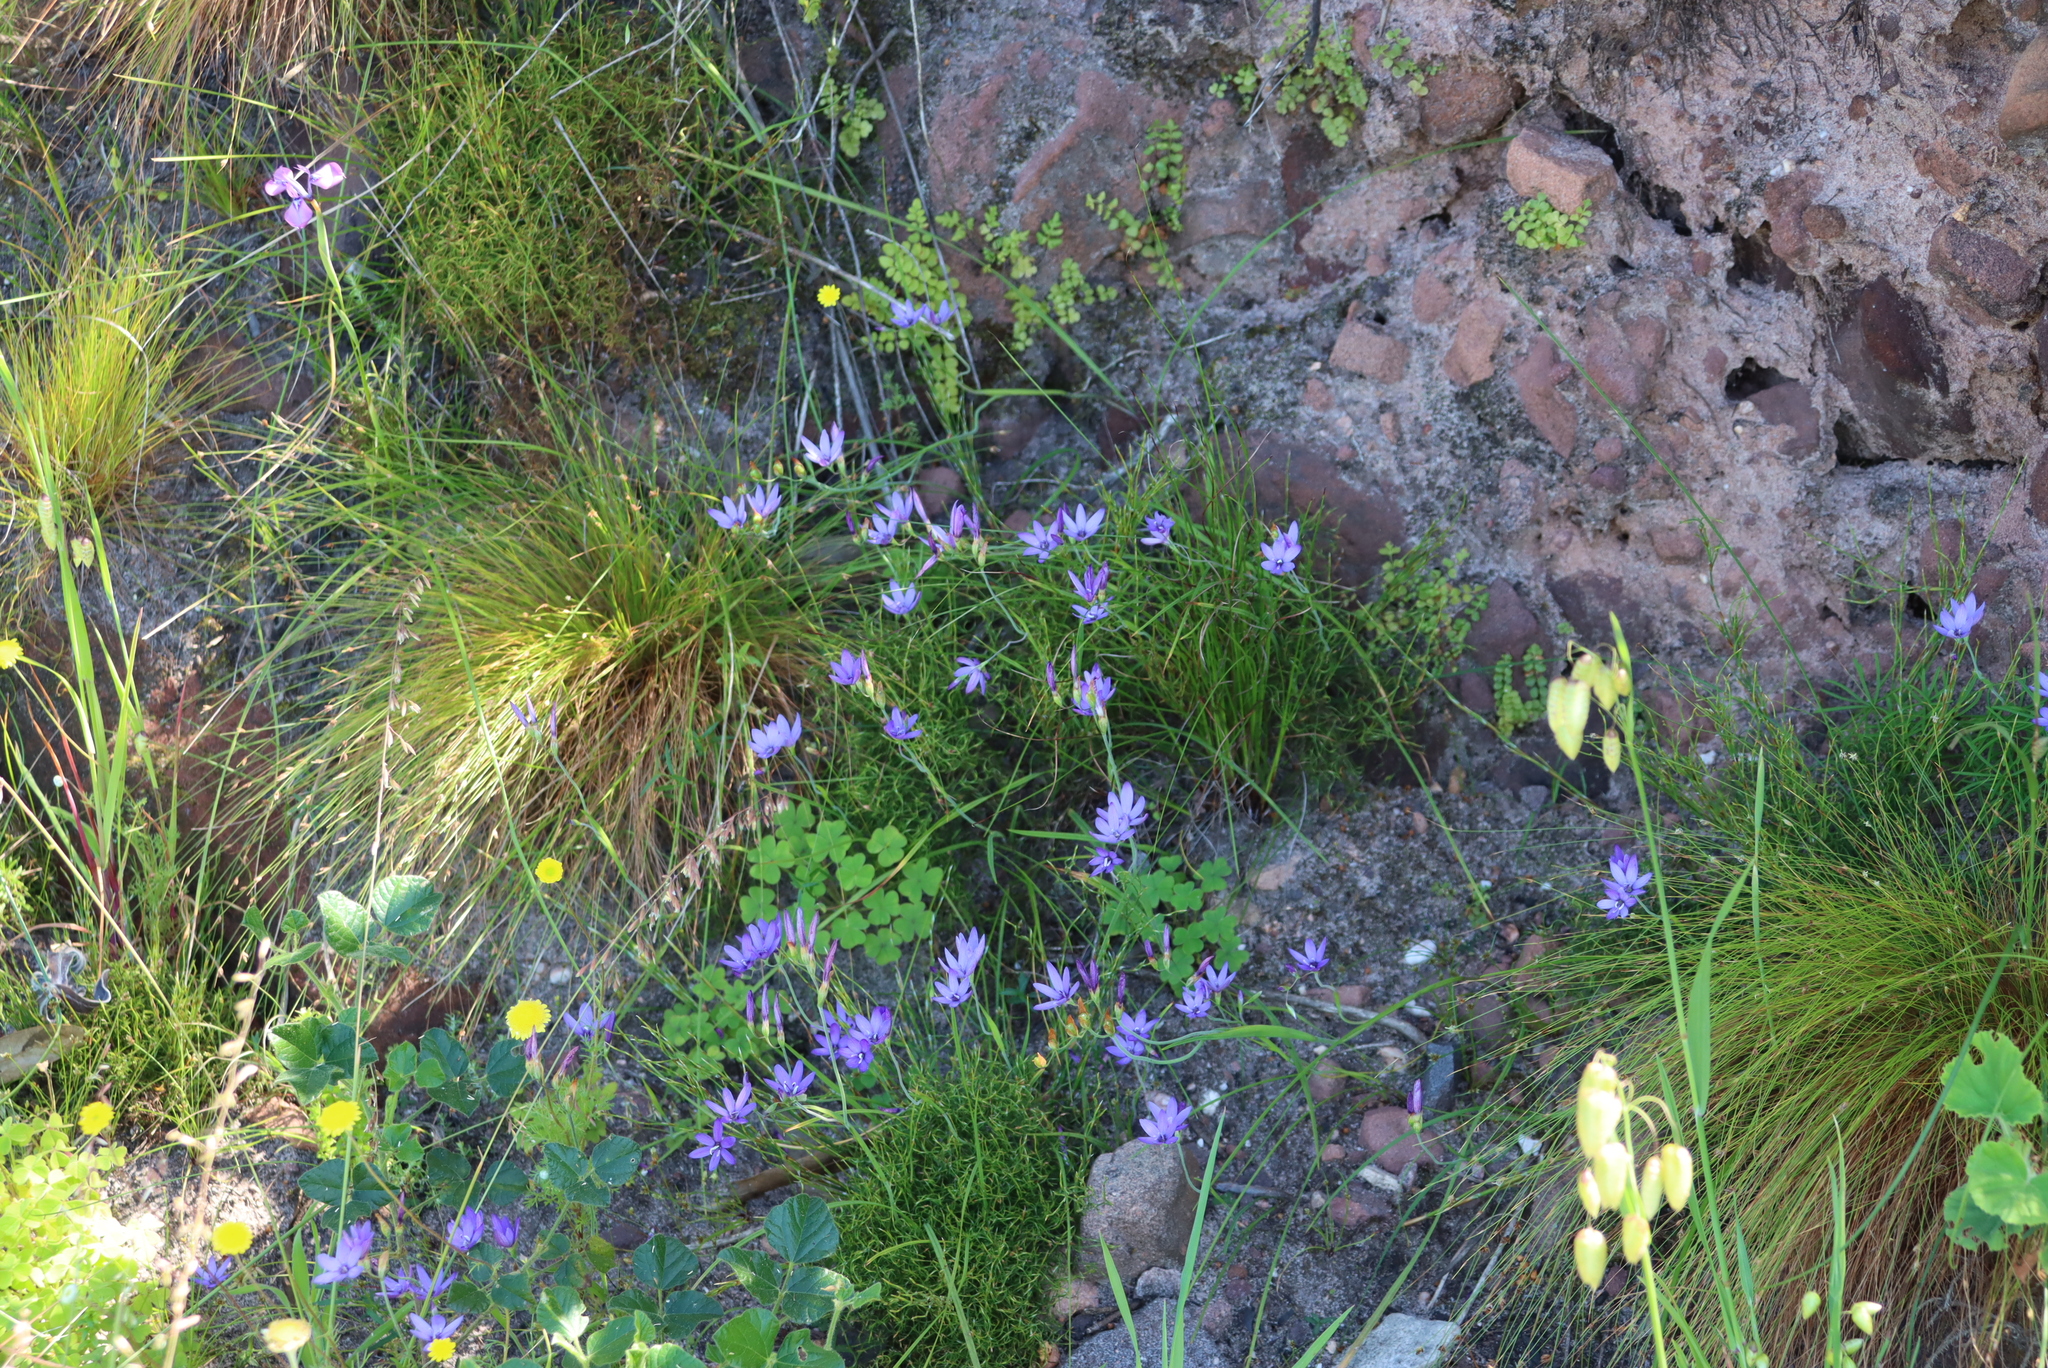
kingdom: Plantae
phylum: Tracheophyta
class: Liliopsida
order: Asparagales
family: Iridaceae
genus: Geissorhiza
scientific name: Geissorhiza aspera
